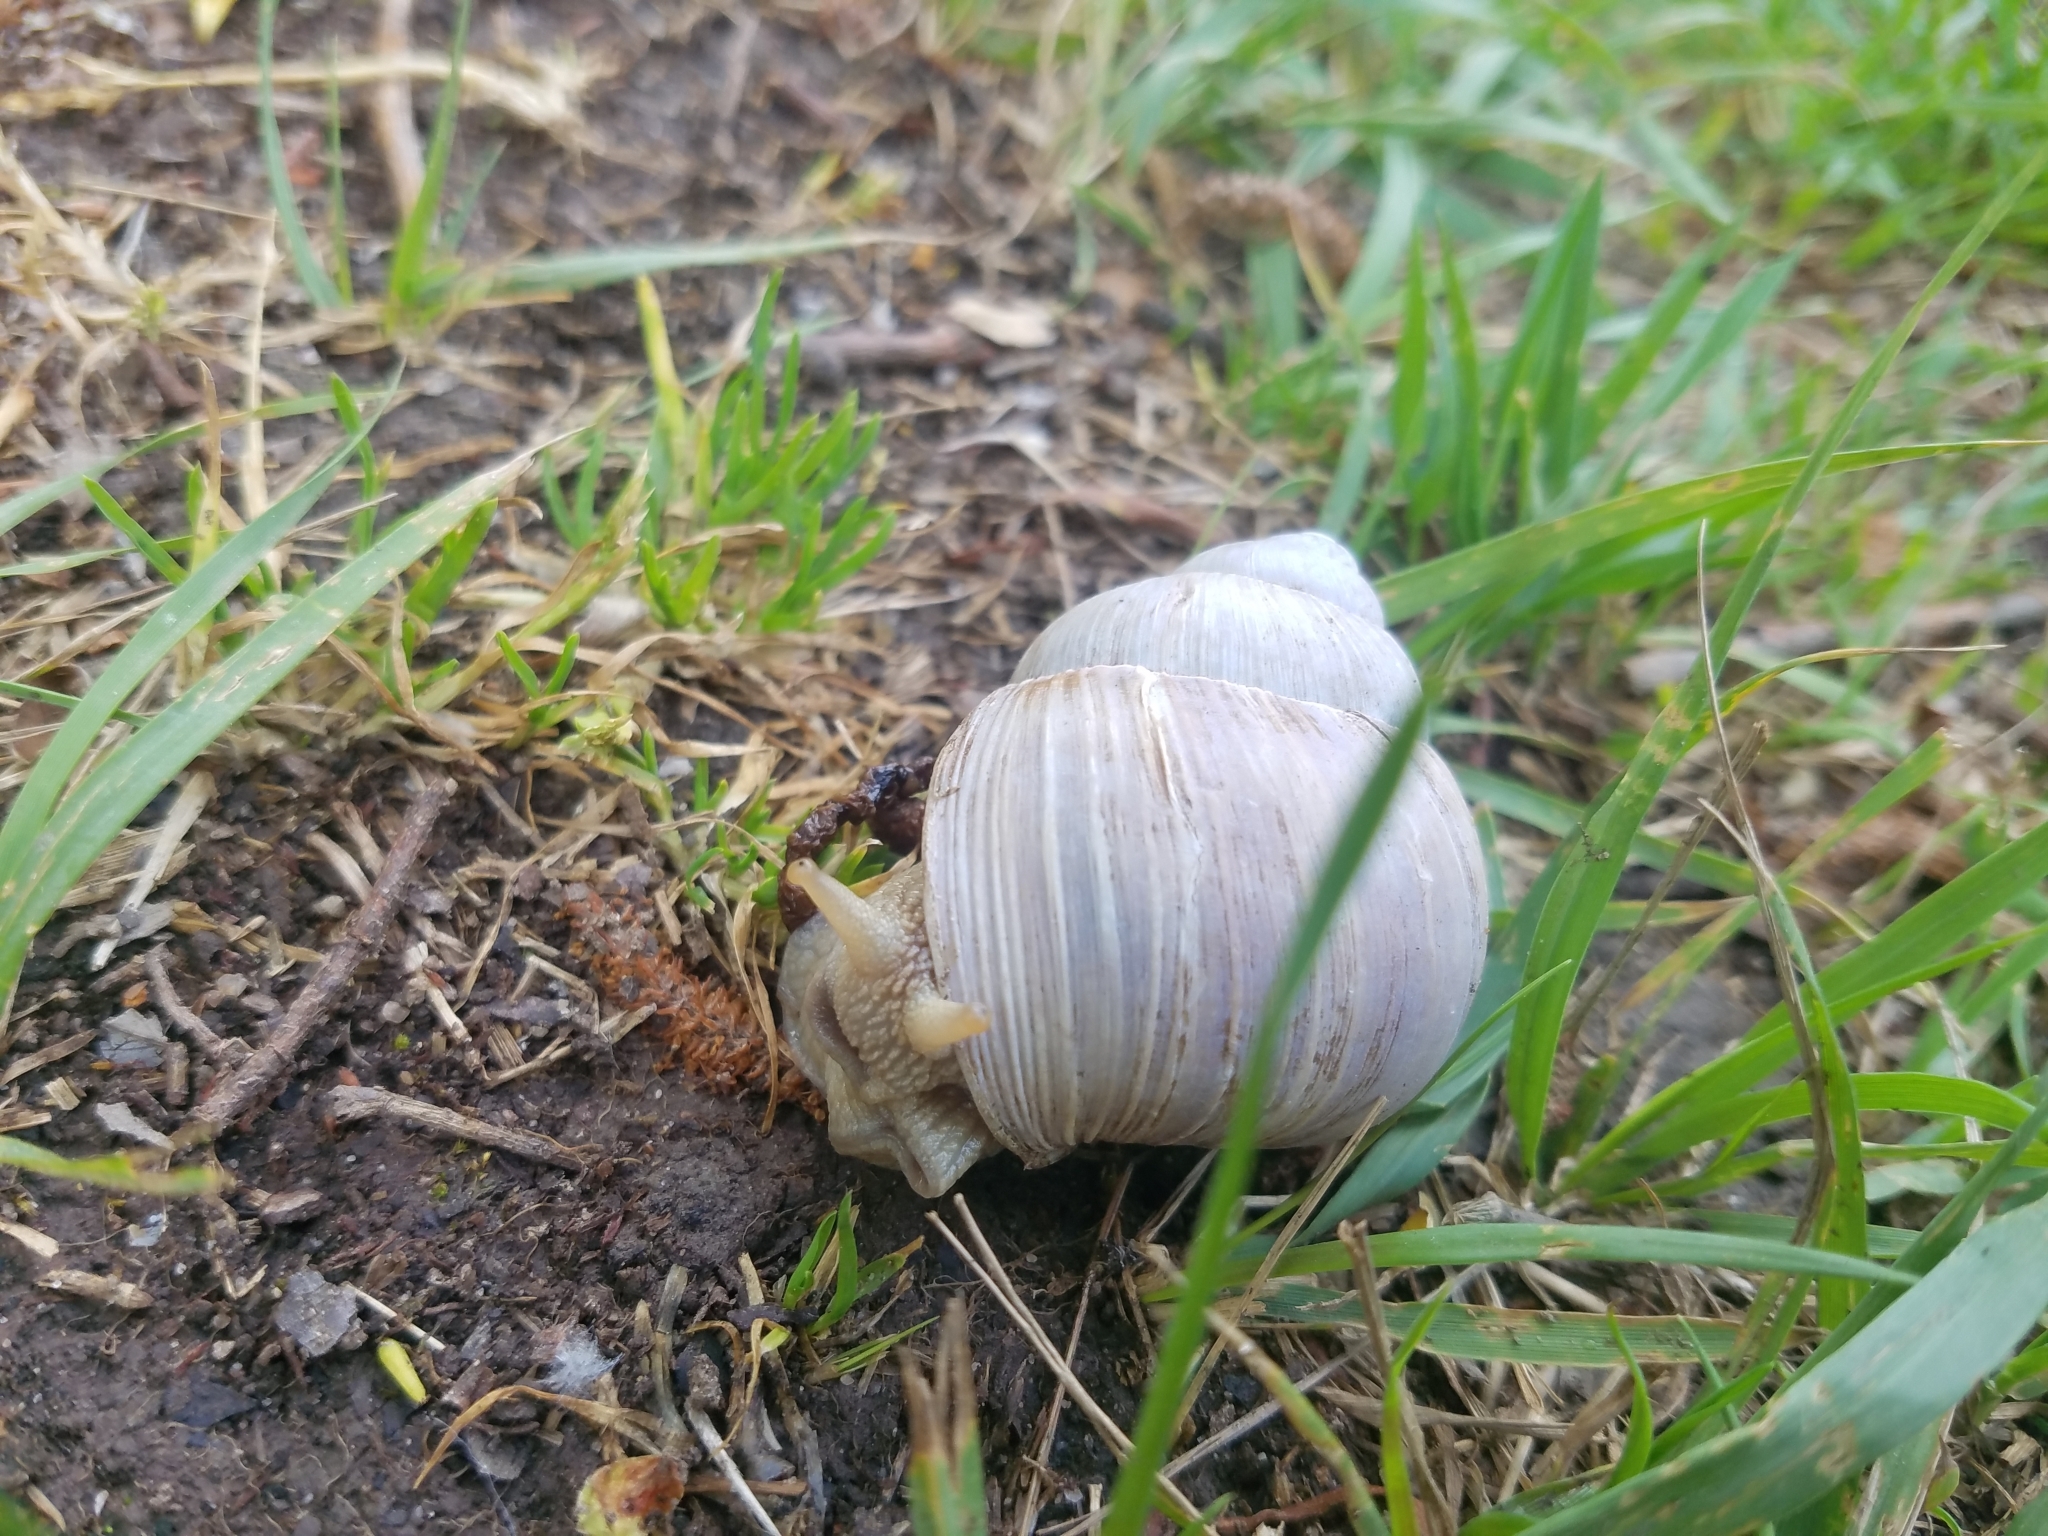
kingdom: Animalia
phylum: Mollusca
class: Gastropoda
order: Stylommatophora
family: Helicidae
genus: Helix
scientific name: Helix pomatia
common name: Roman snail
